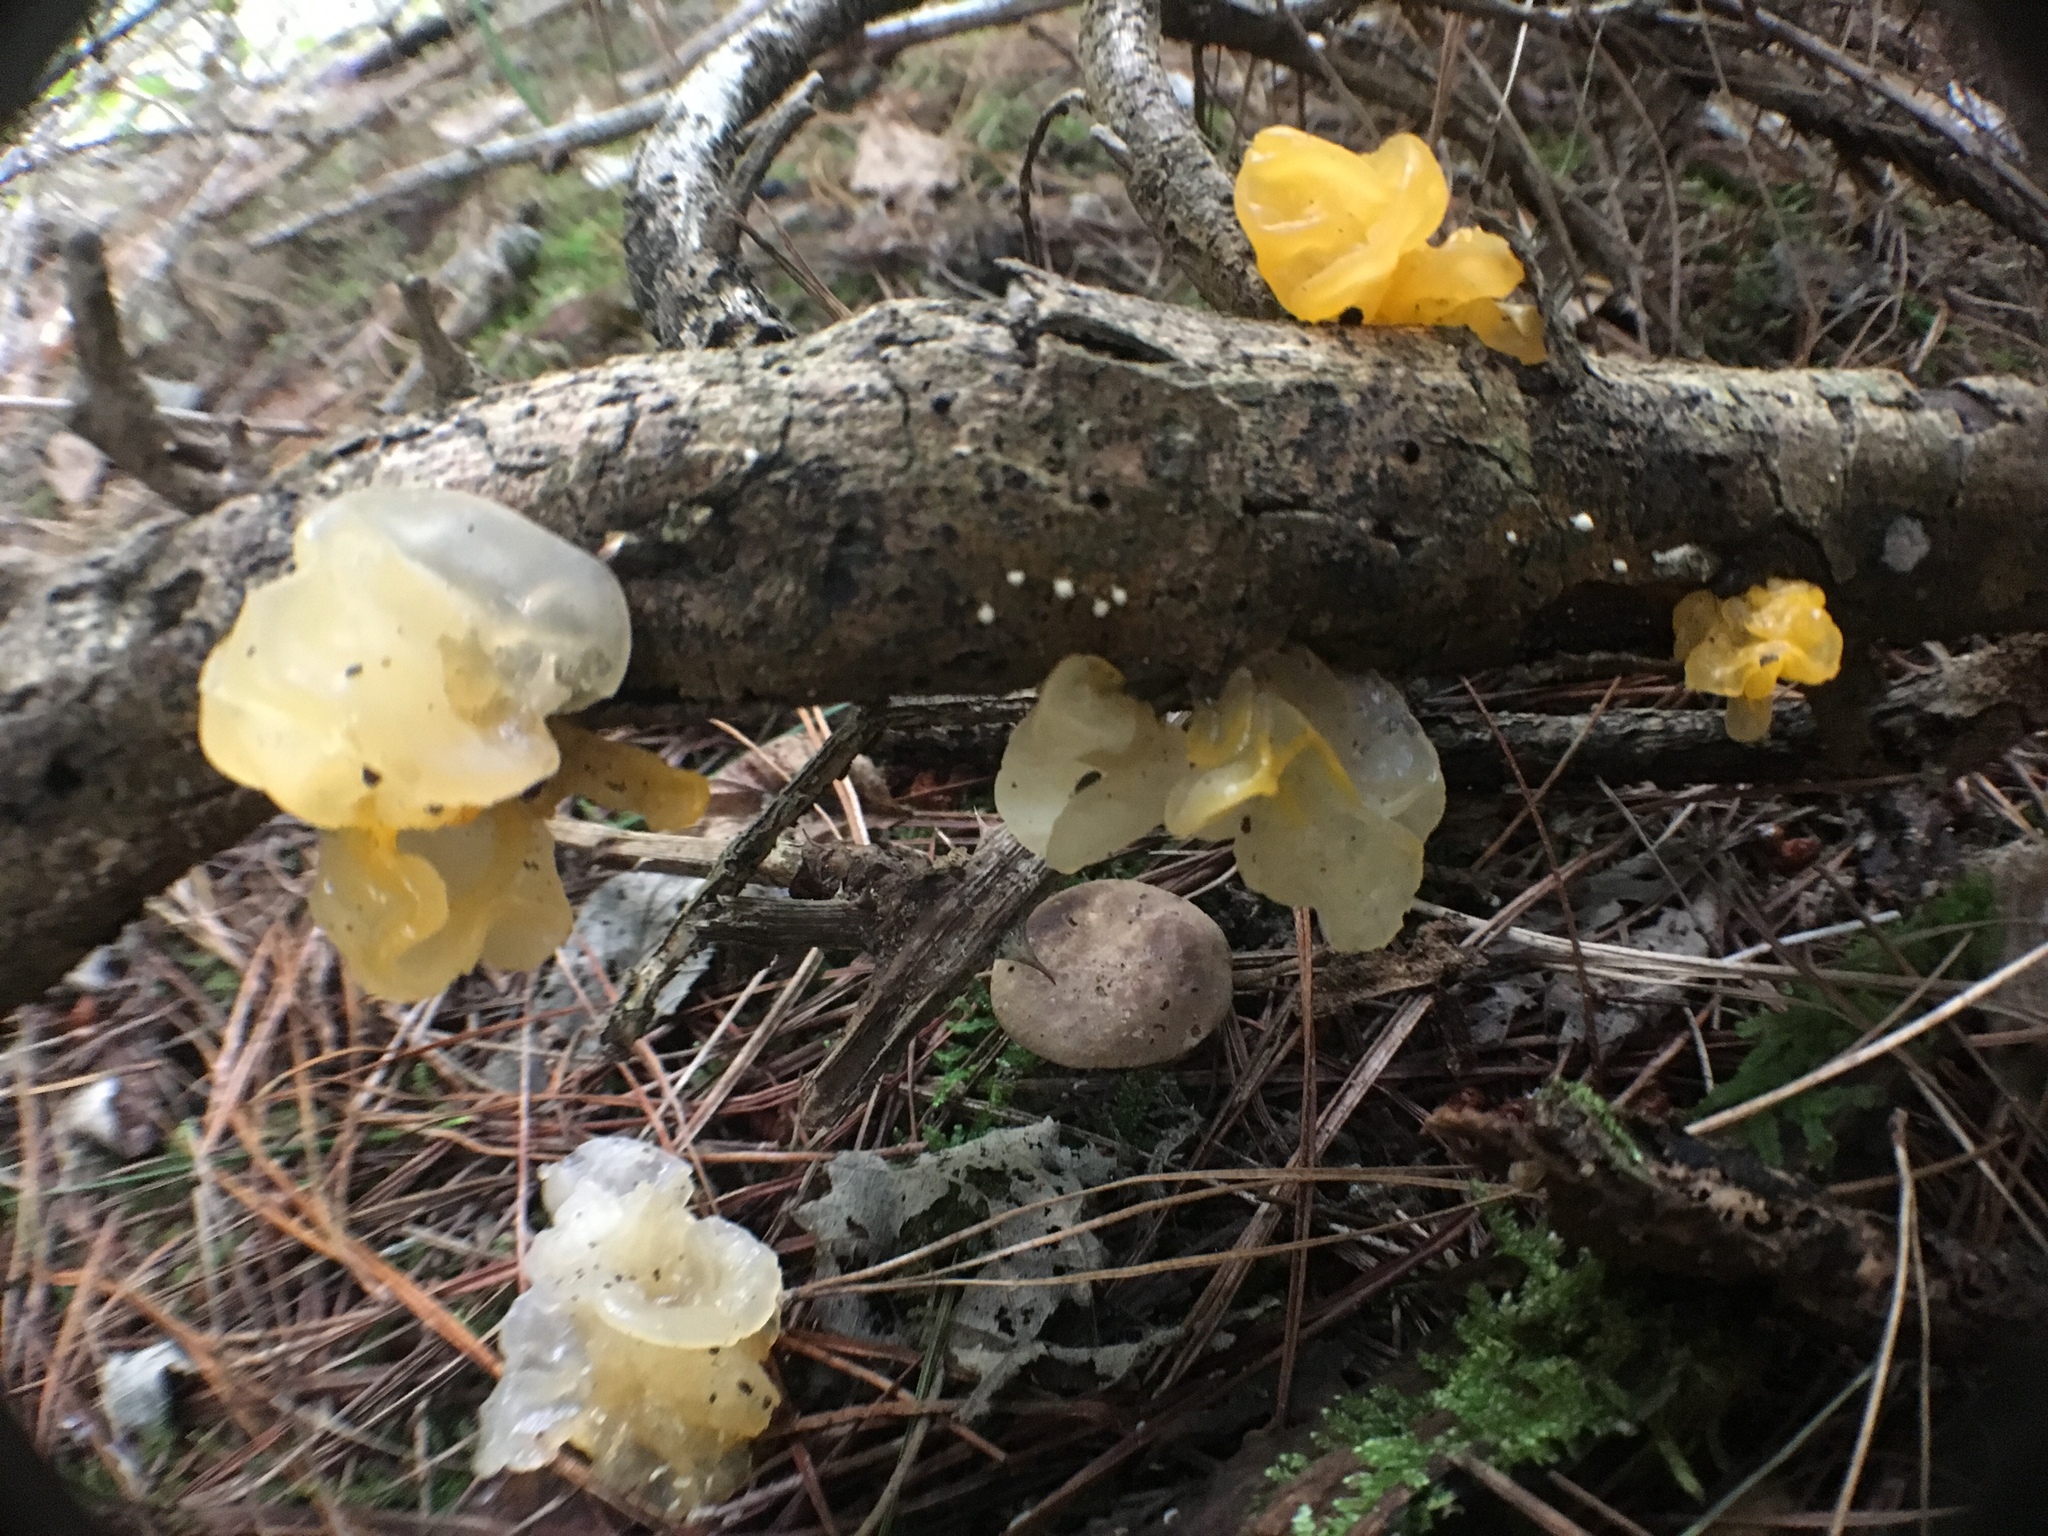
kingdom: Fungi
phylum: Basidiomycota
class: Tremellomycetes
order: Tremellales
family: Tremellaceae
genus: Tremella
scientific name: Tremella mesenterica
